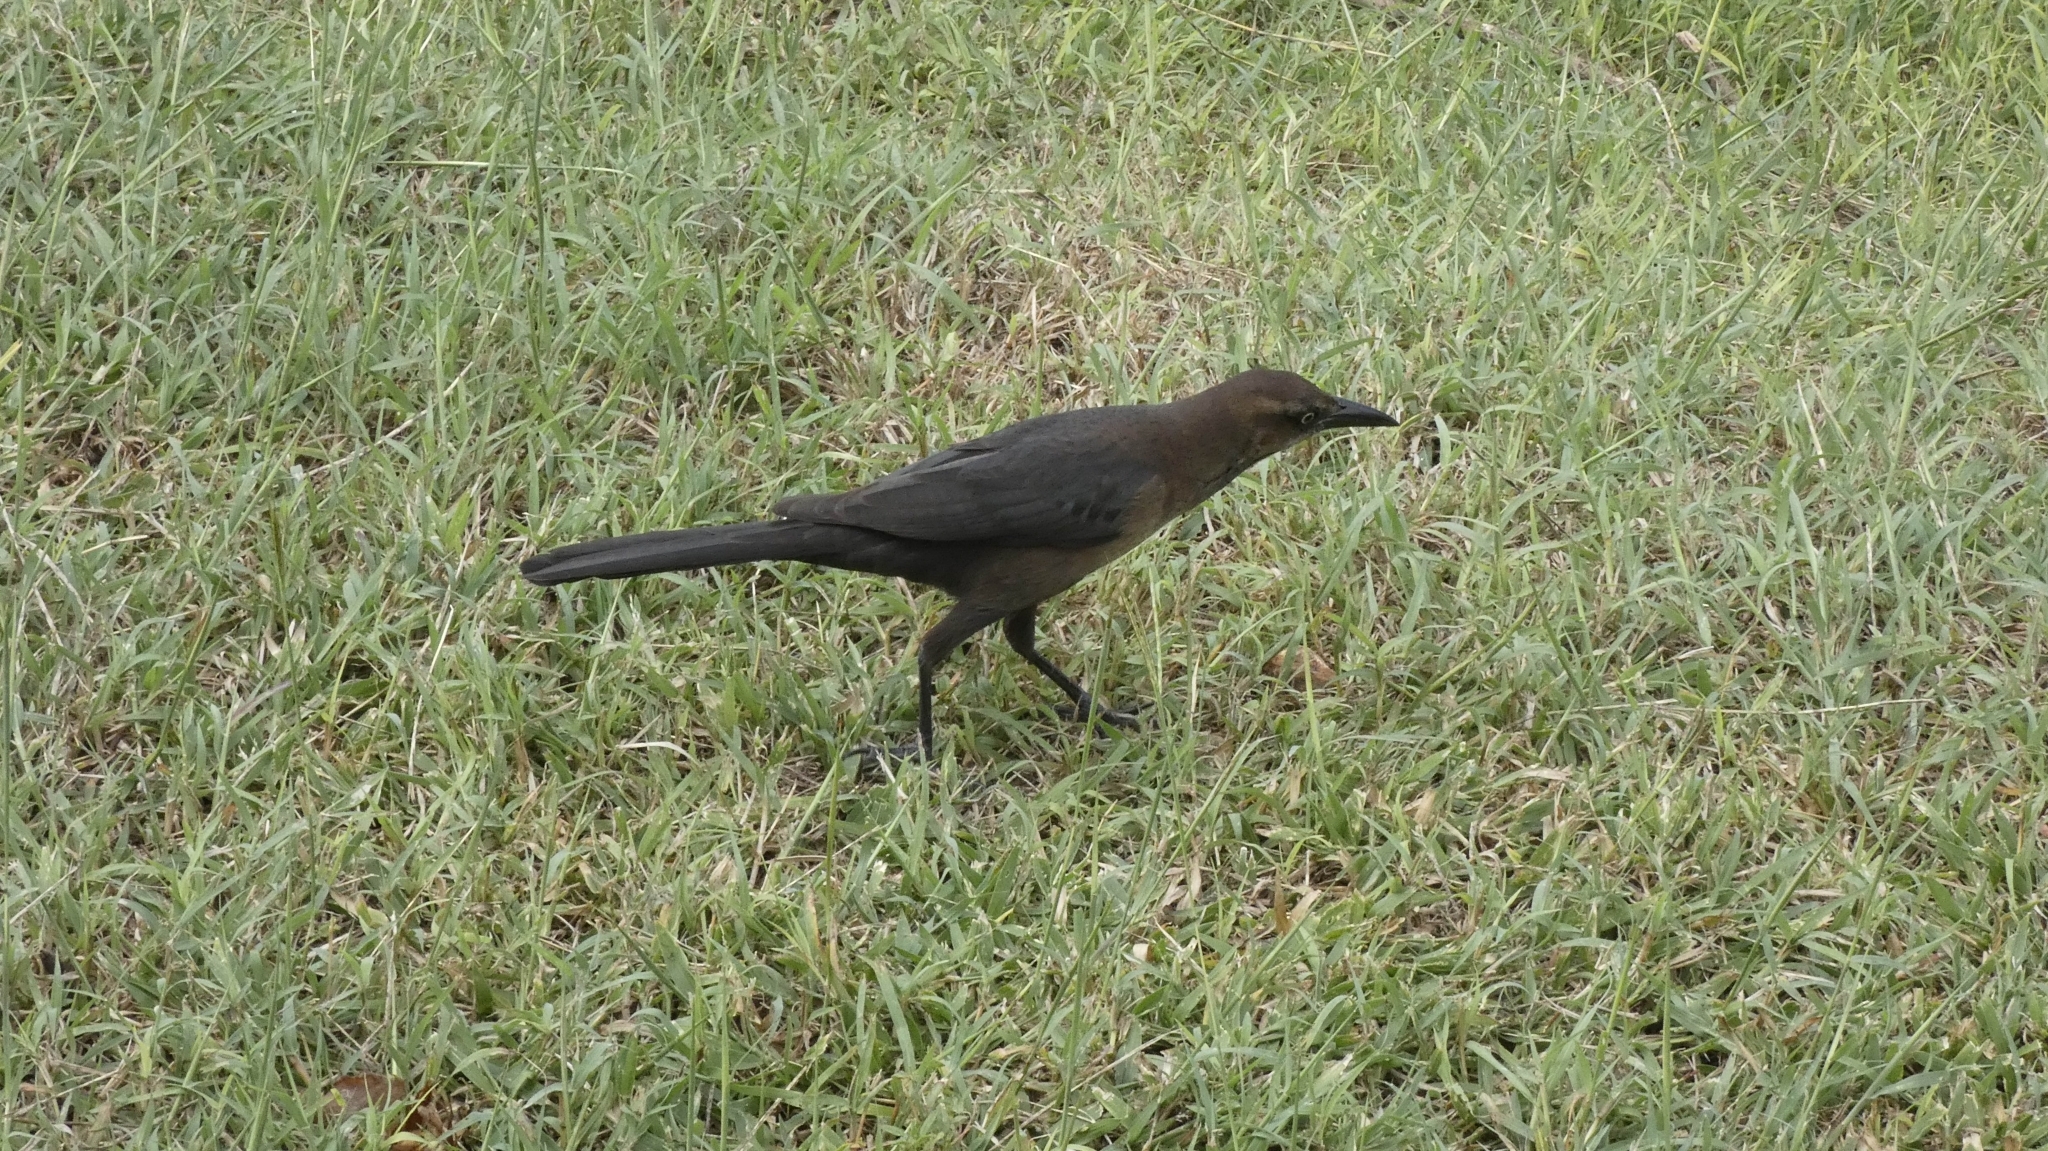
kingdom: Animalia
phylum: Chordata
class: Aves
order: Passeriformes
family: Icteridae
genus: Quiscalus
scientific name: Quiscalus mexicanus
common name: Great-tailed grackle
